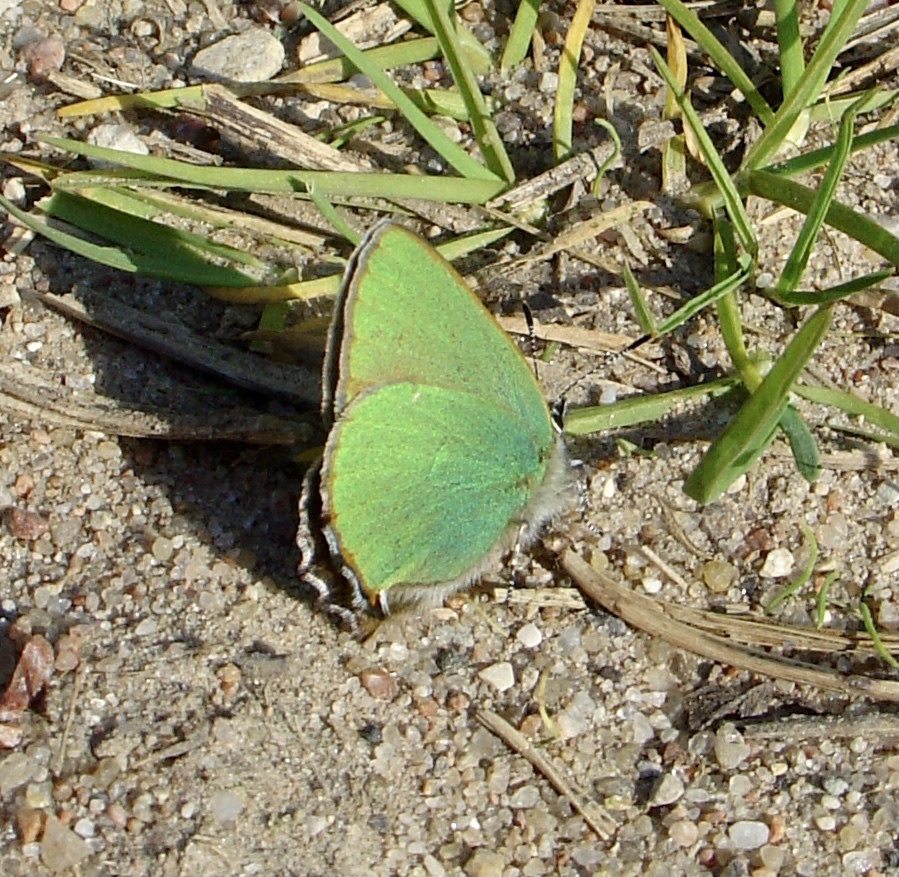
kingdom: Animalia
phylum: Arthropoda
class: Insecta
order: Lepidoptera
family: Lycaenidae
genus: Callophrys
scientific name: Callophrys rubi
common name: Green hairstreak
